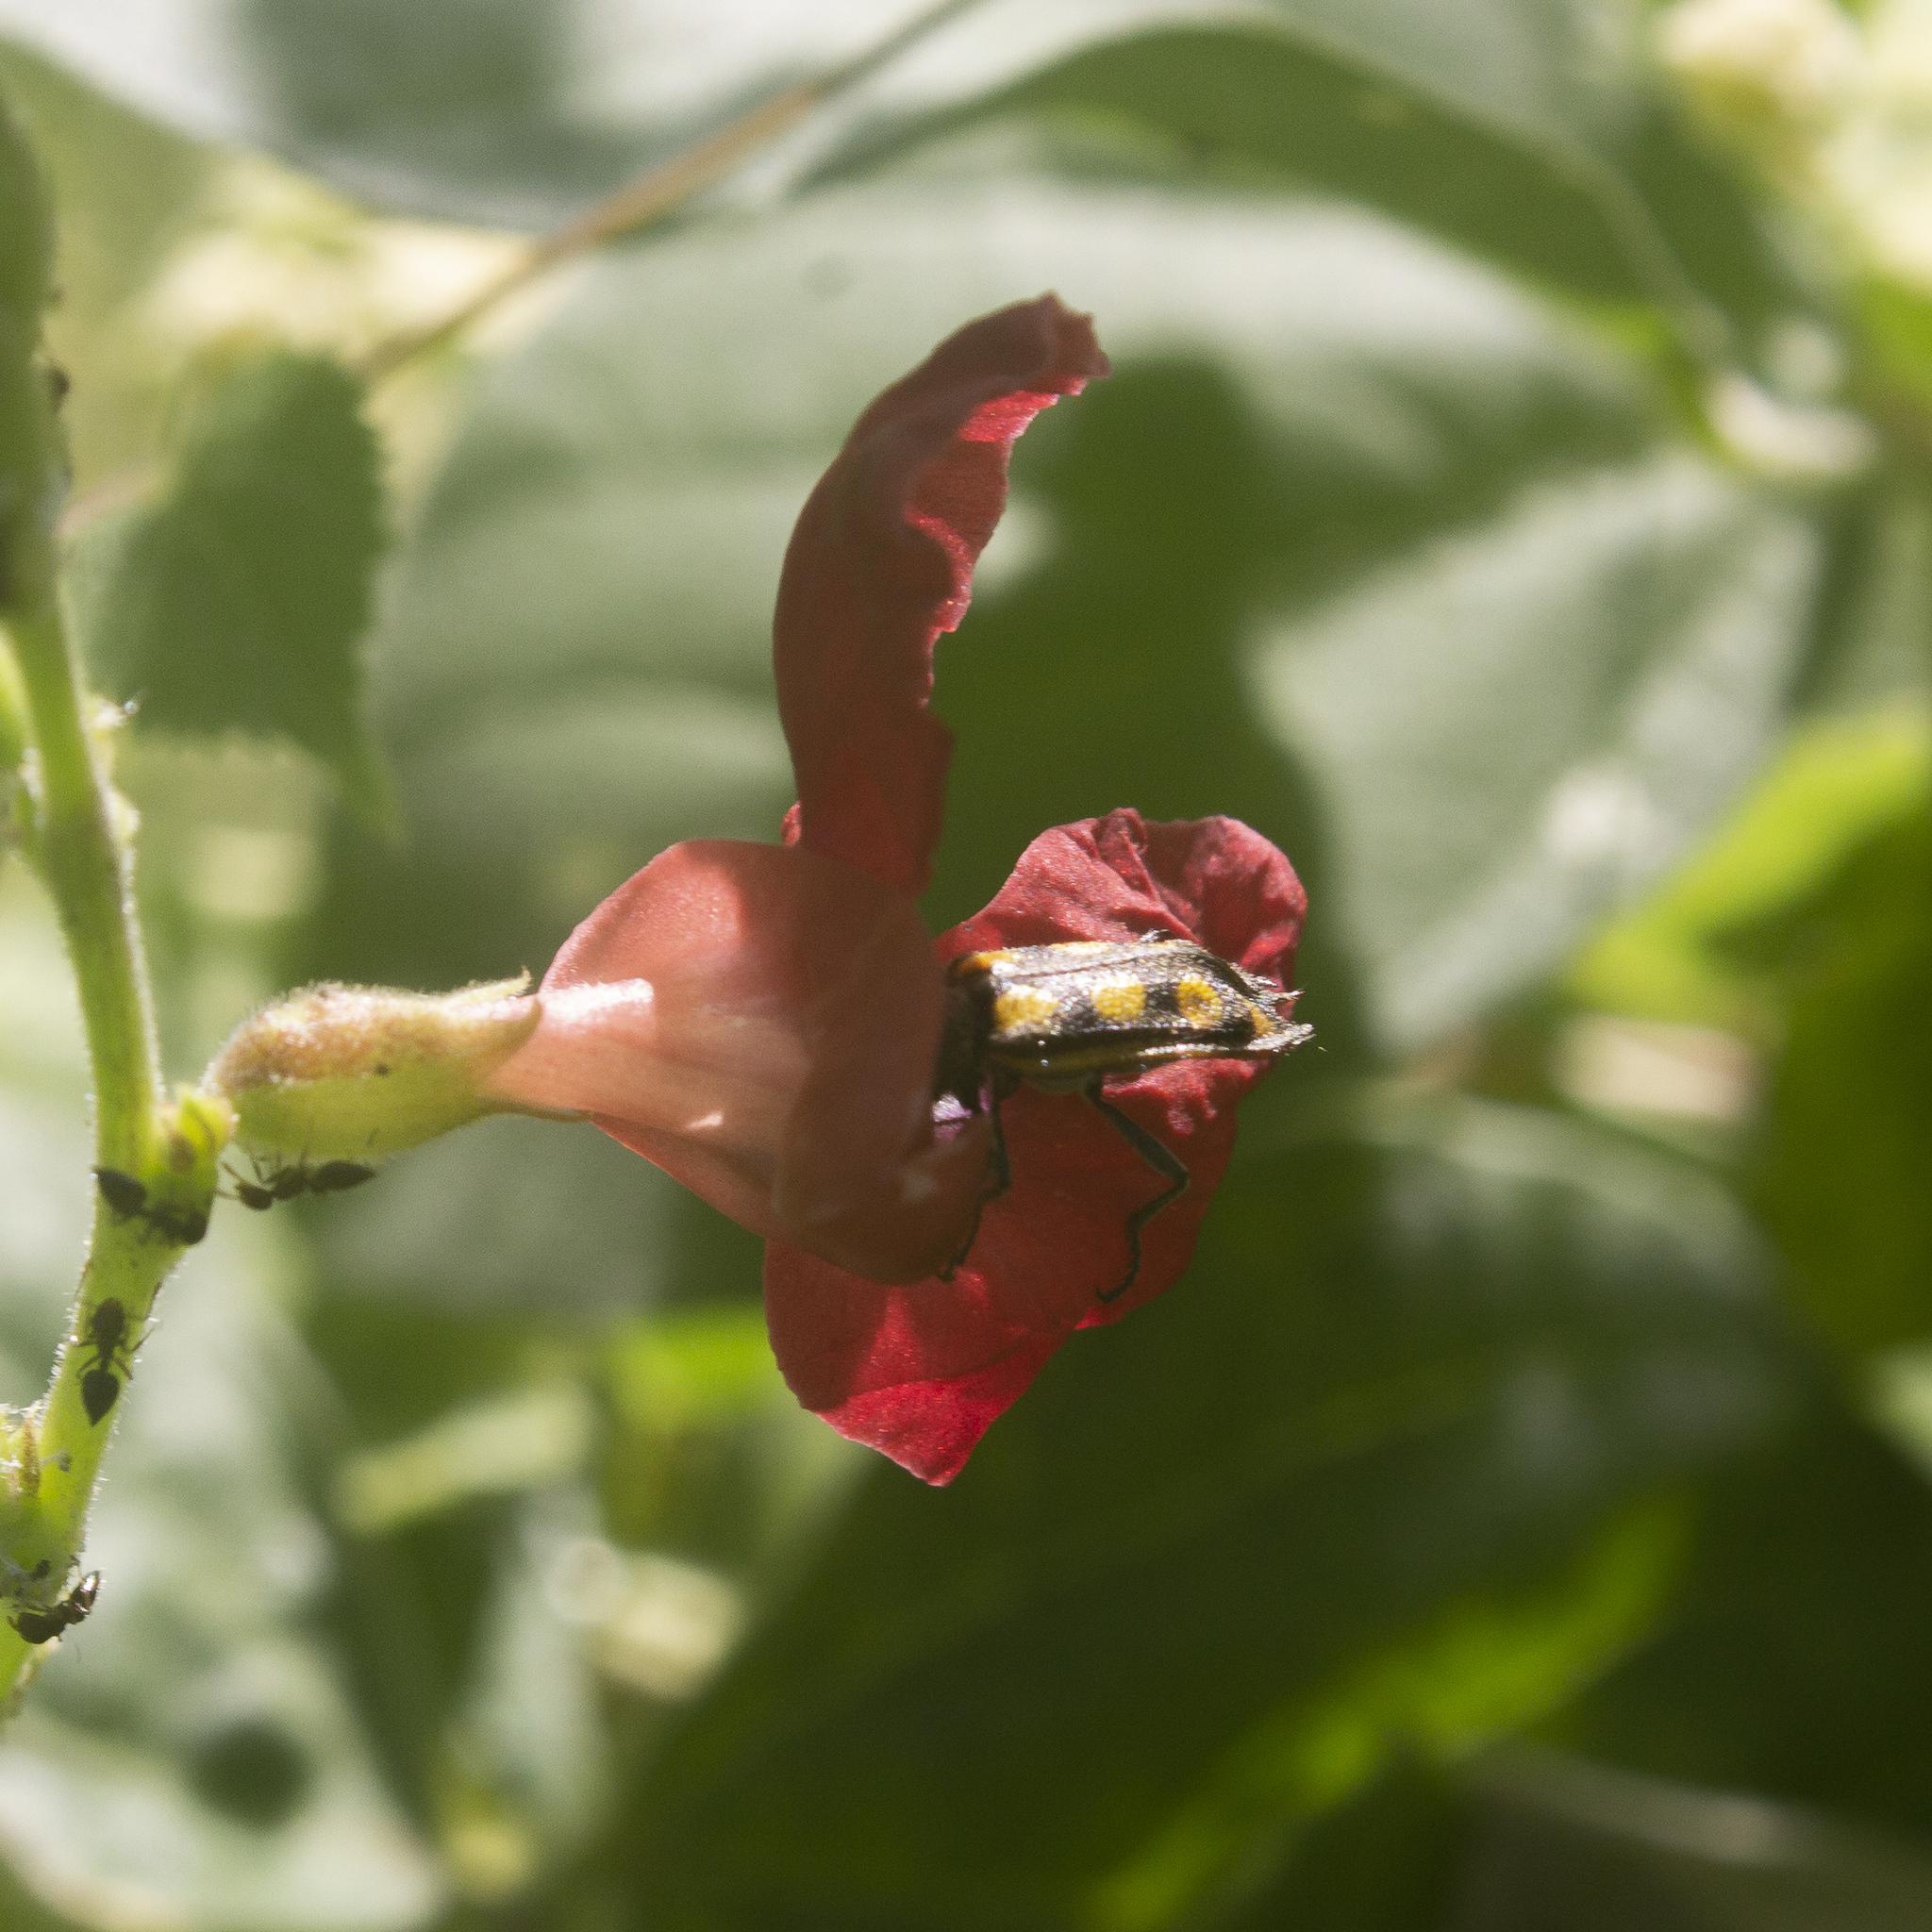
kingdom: Animalia
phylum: Arthropoda
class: Insecta
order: Coleoptera
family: Melyridae
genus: Astylus
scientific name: Astylus
